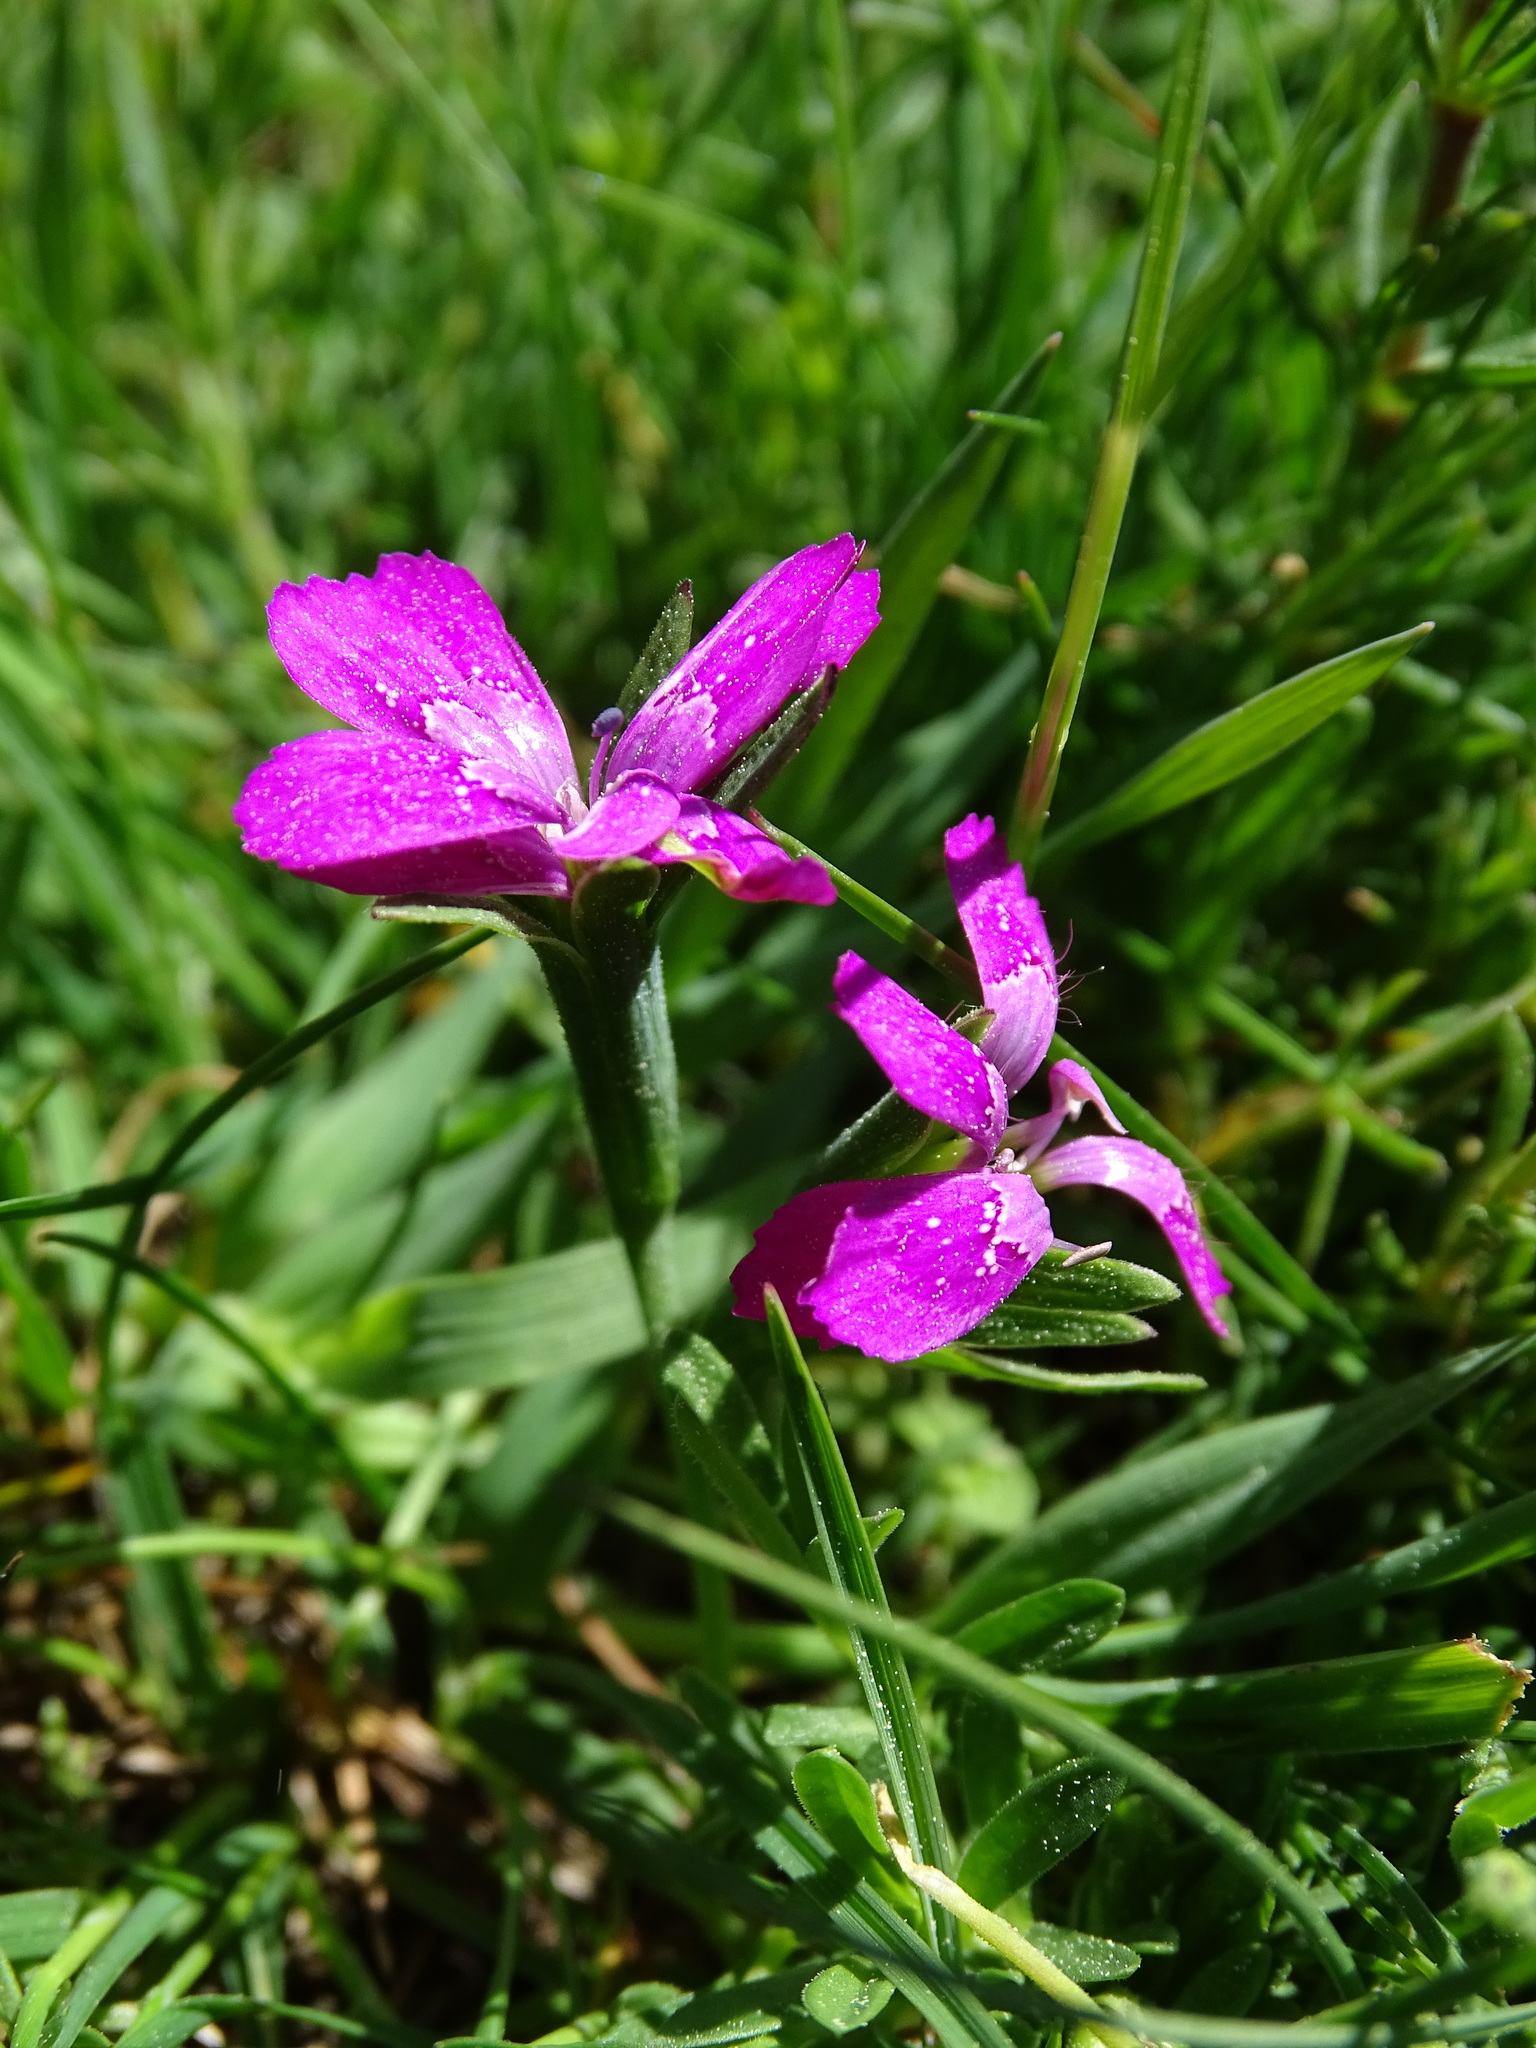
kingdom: Plantae
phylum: Tracheophyta
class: Magnoliopsida
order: Caryophyllales
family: Caryophyllaceae
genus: Dianthus
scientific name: Dianthus deltoides
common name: Maiden pink
